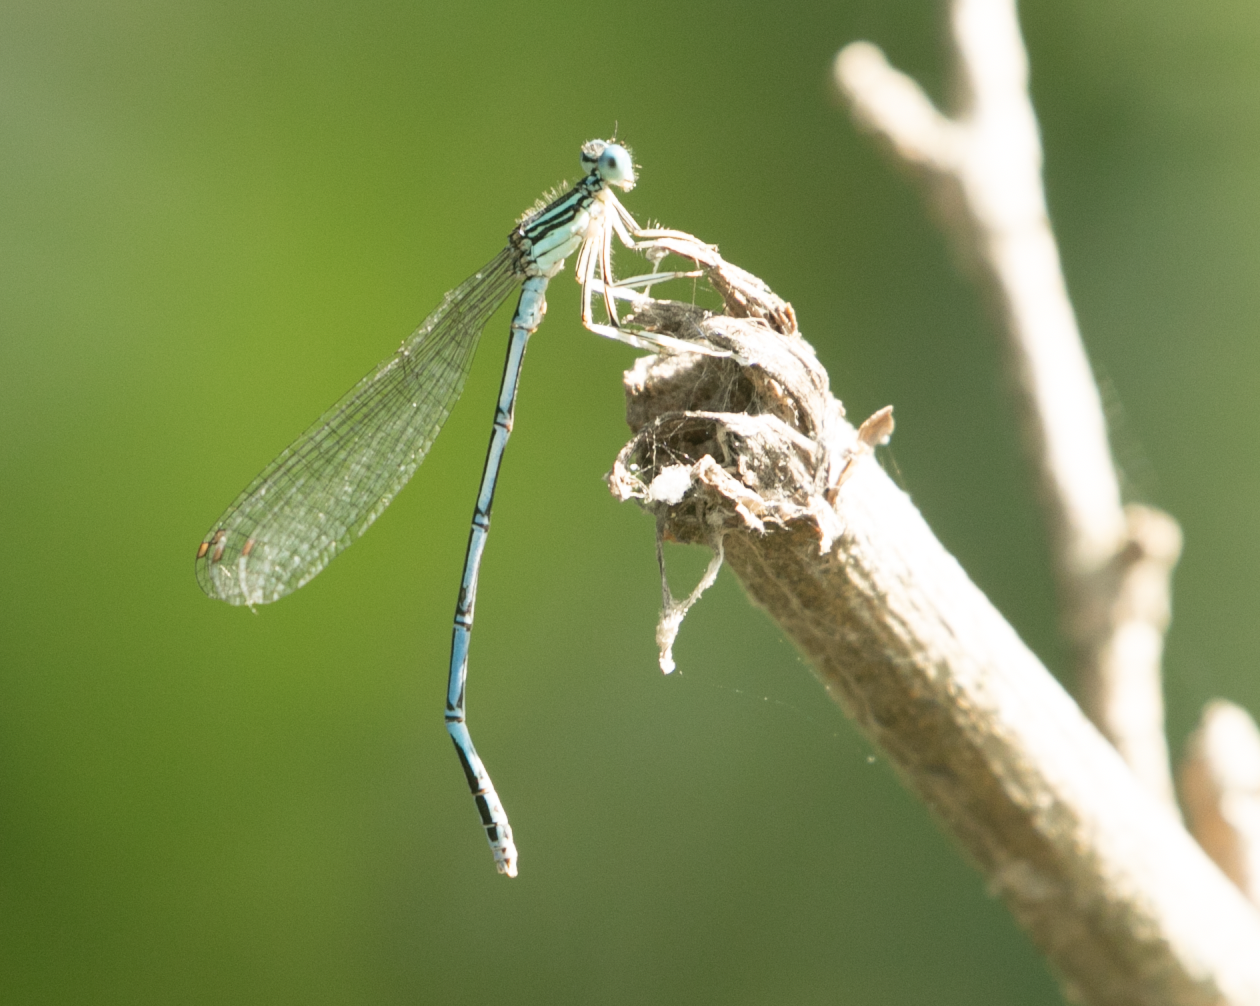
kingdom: Animalia
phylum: Arthropoda
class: Insecta
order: Odonata
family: Platycnemididae
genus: Platycnemis
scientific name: Platycnemis pennipes
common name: White-legged damselfly
